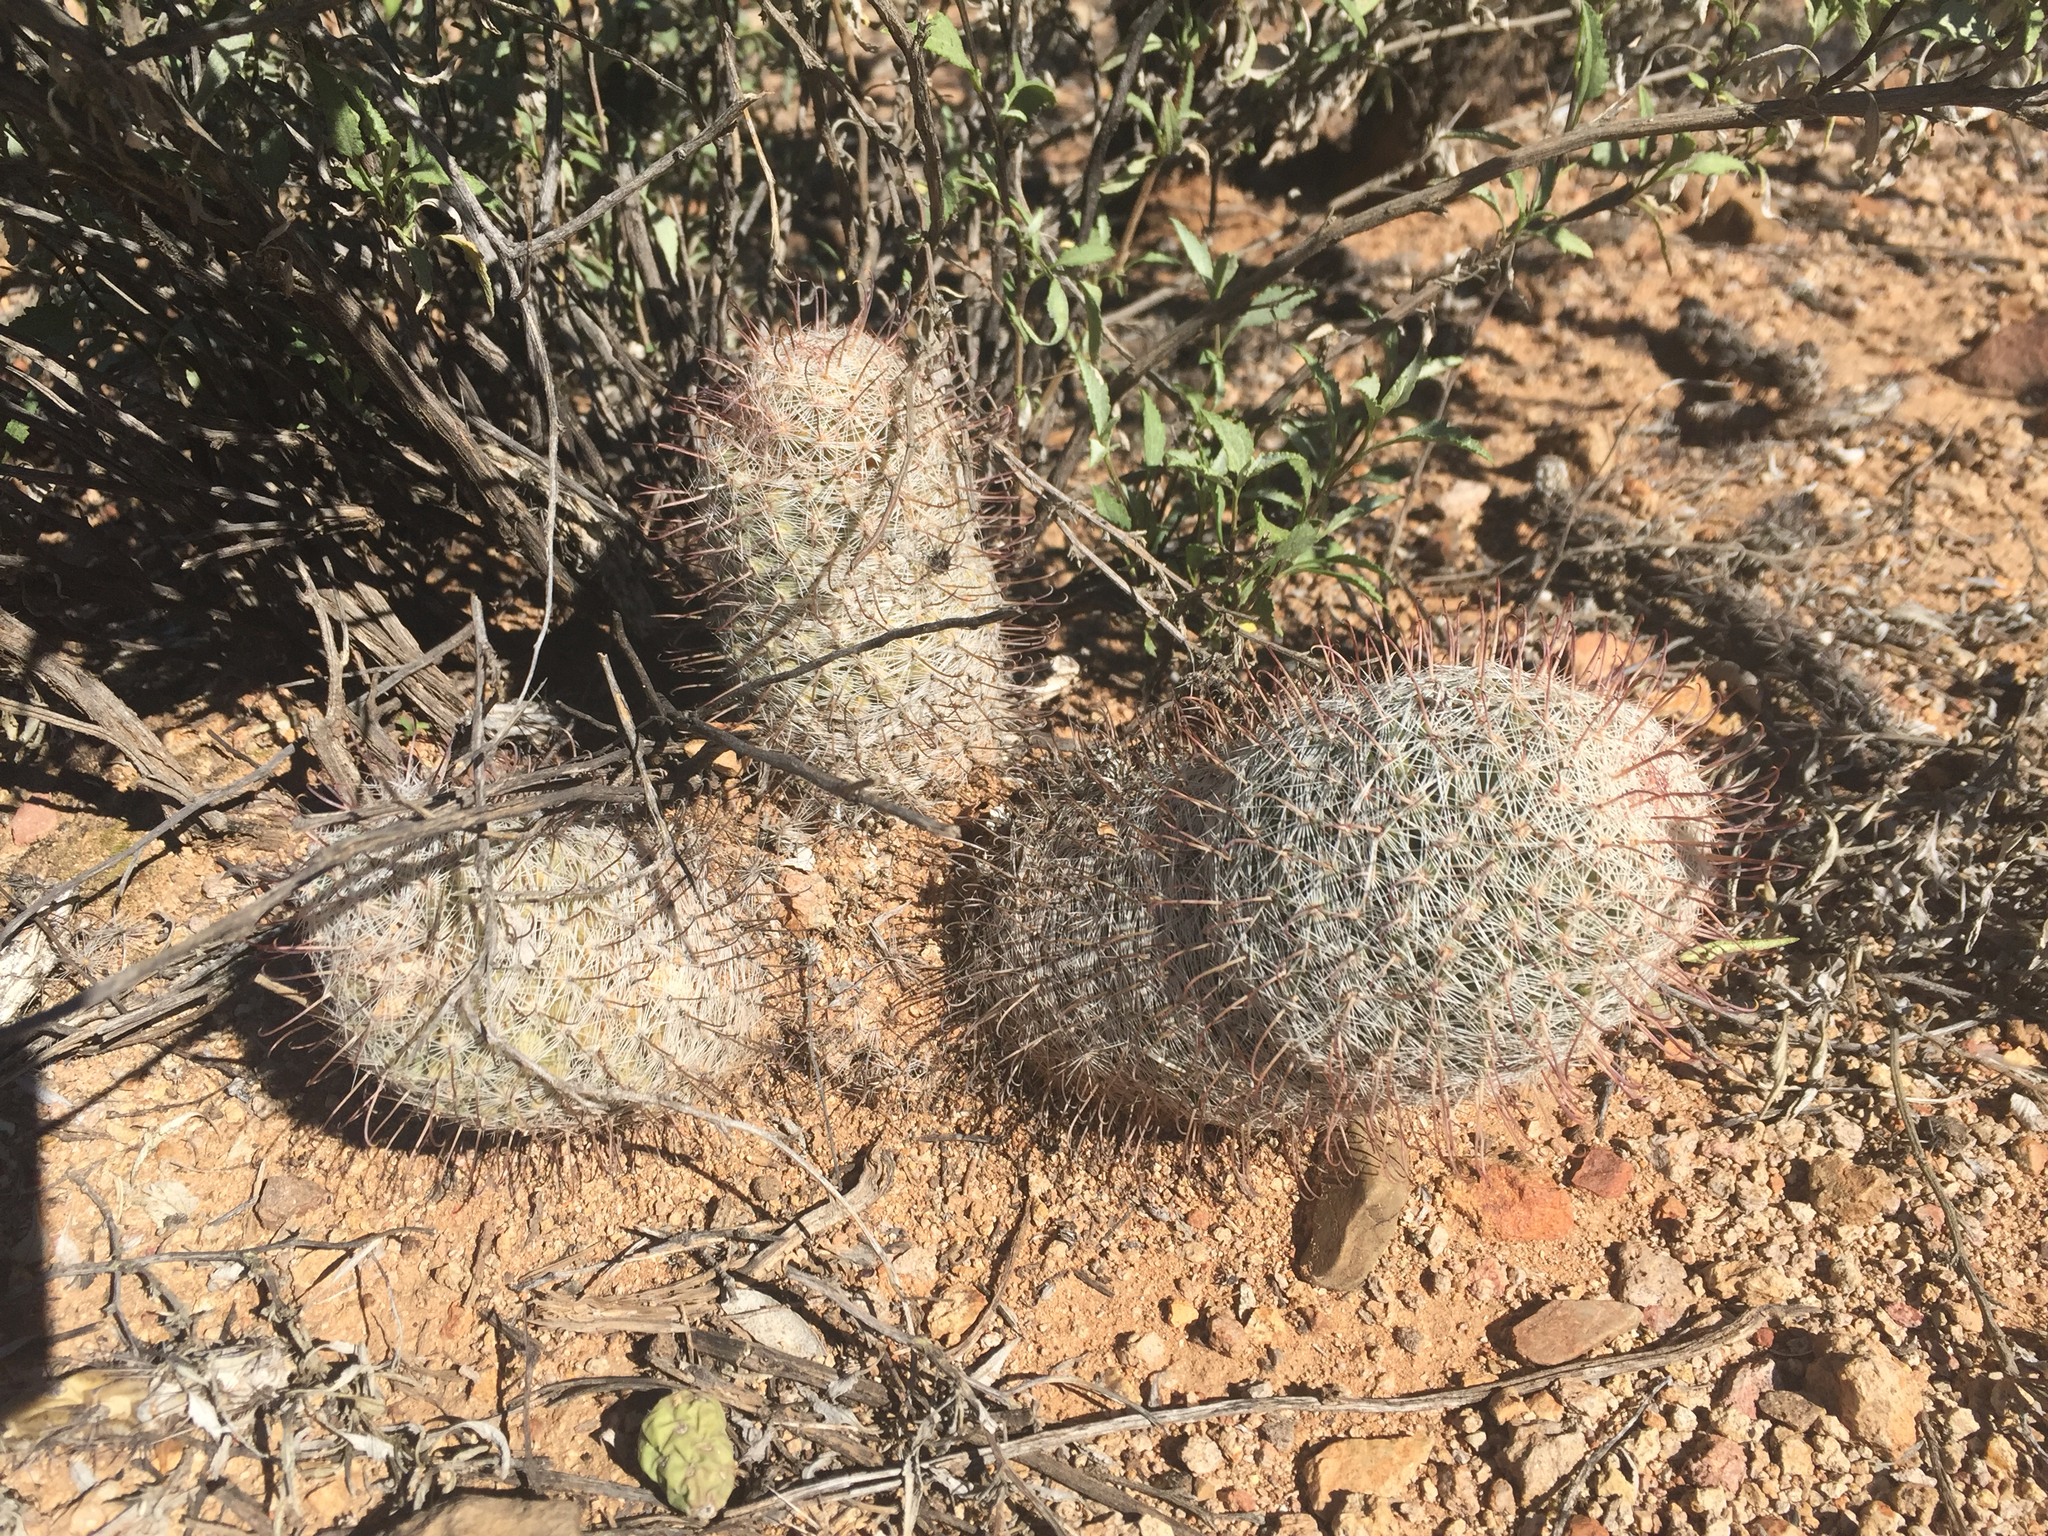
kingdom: Plantae
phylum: Tracheophyta
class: Magnoliopsida
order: Caryophyllales
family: Cactaceae
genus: Cochemiea
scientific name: Cochemiea grahamii
